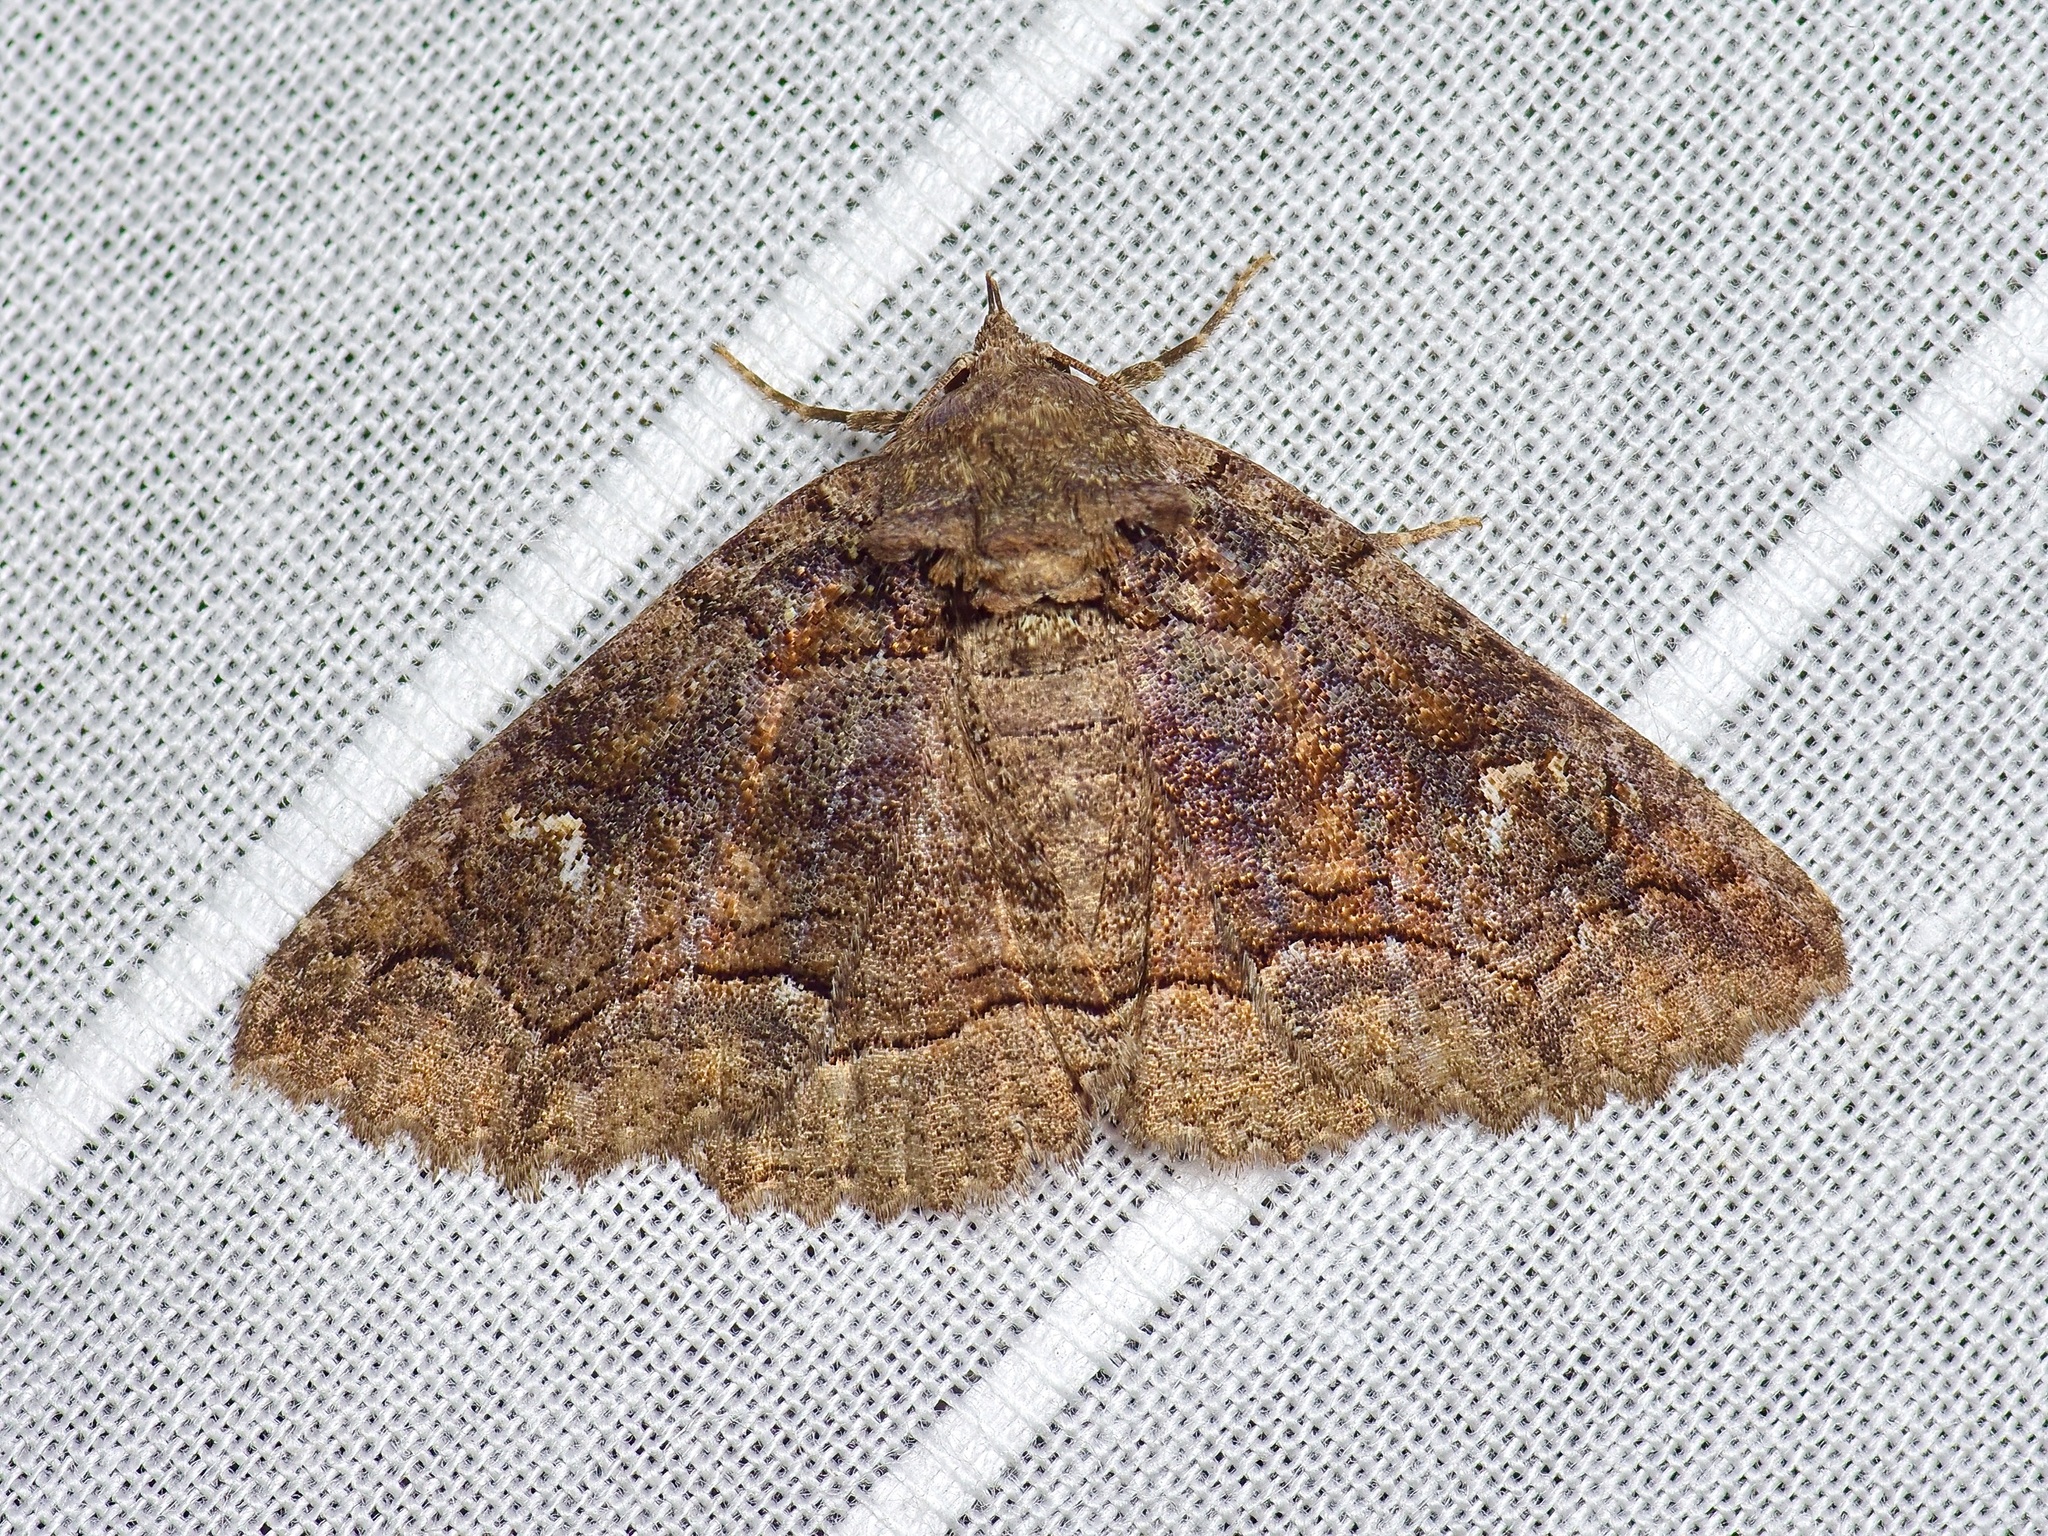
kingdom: Animalia
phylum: Arthropoda
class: Insecta
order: Lepidoptera
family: Erebidae
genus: Zale
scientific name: Zale edusina
